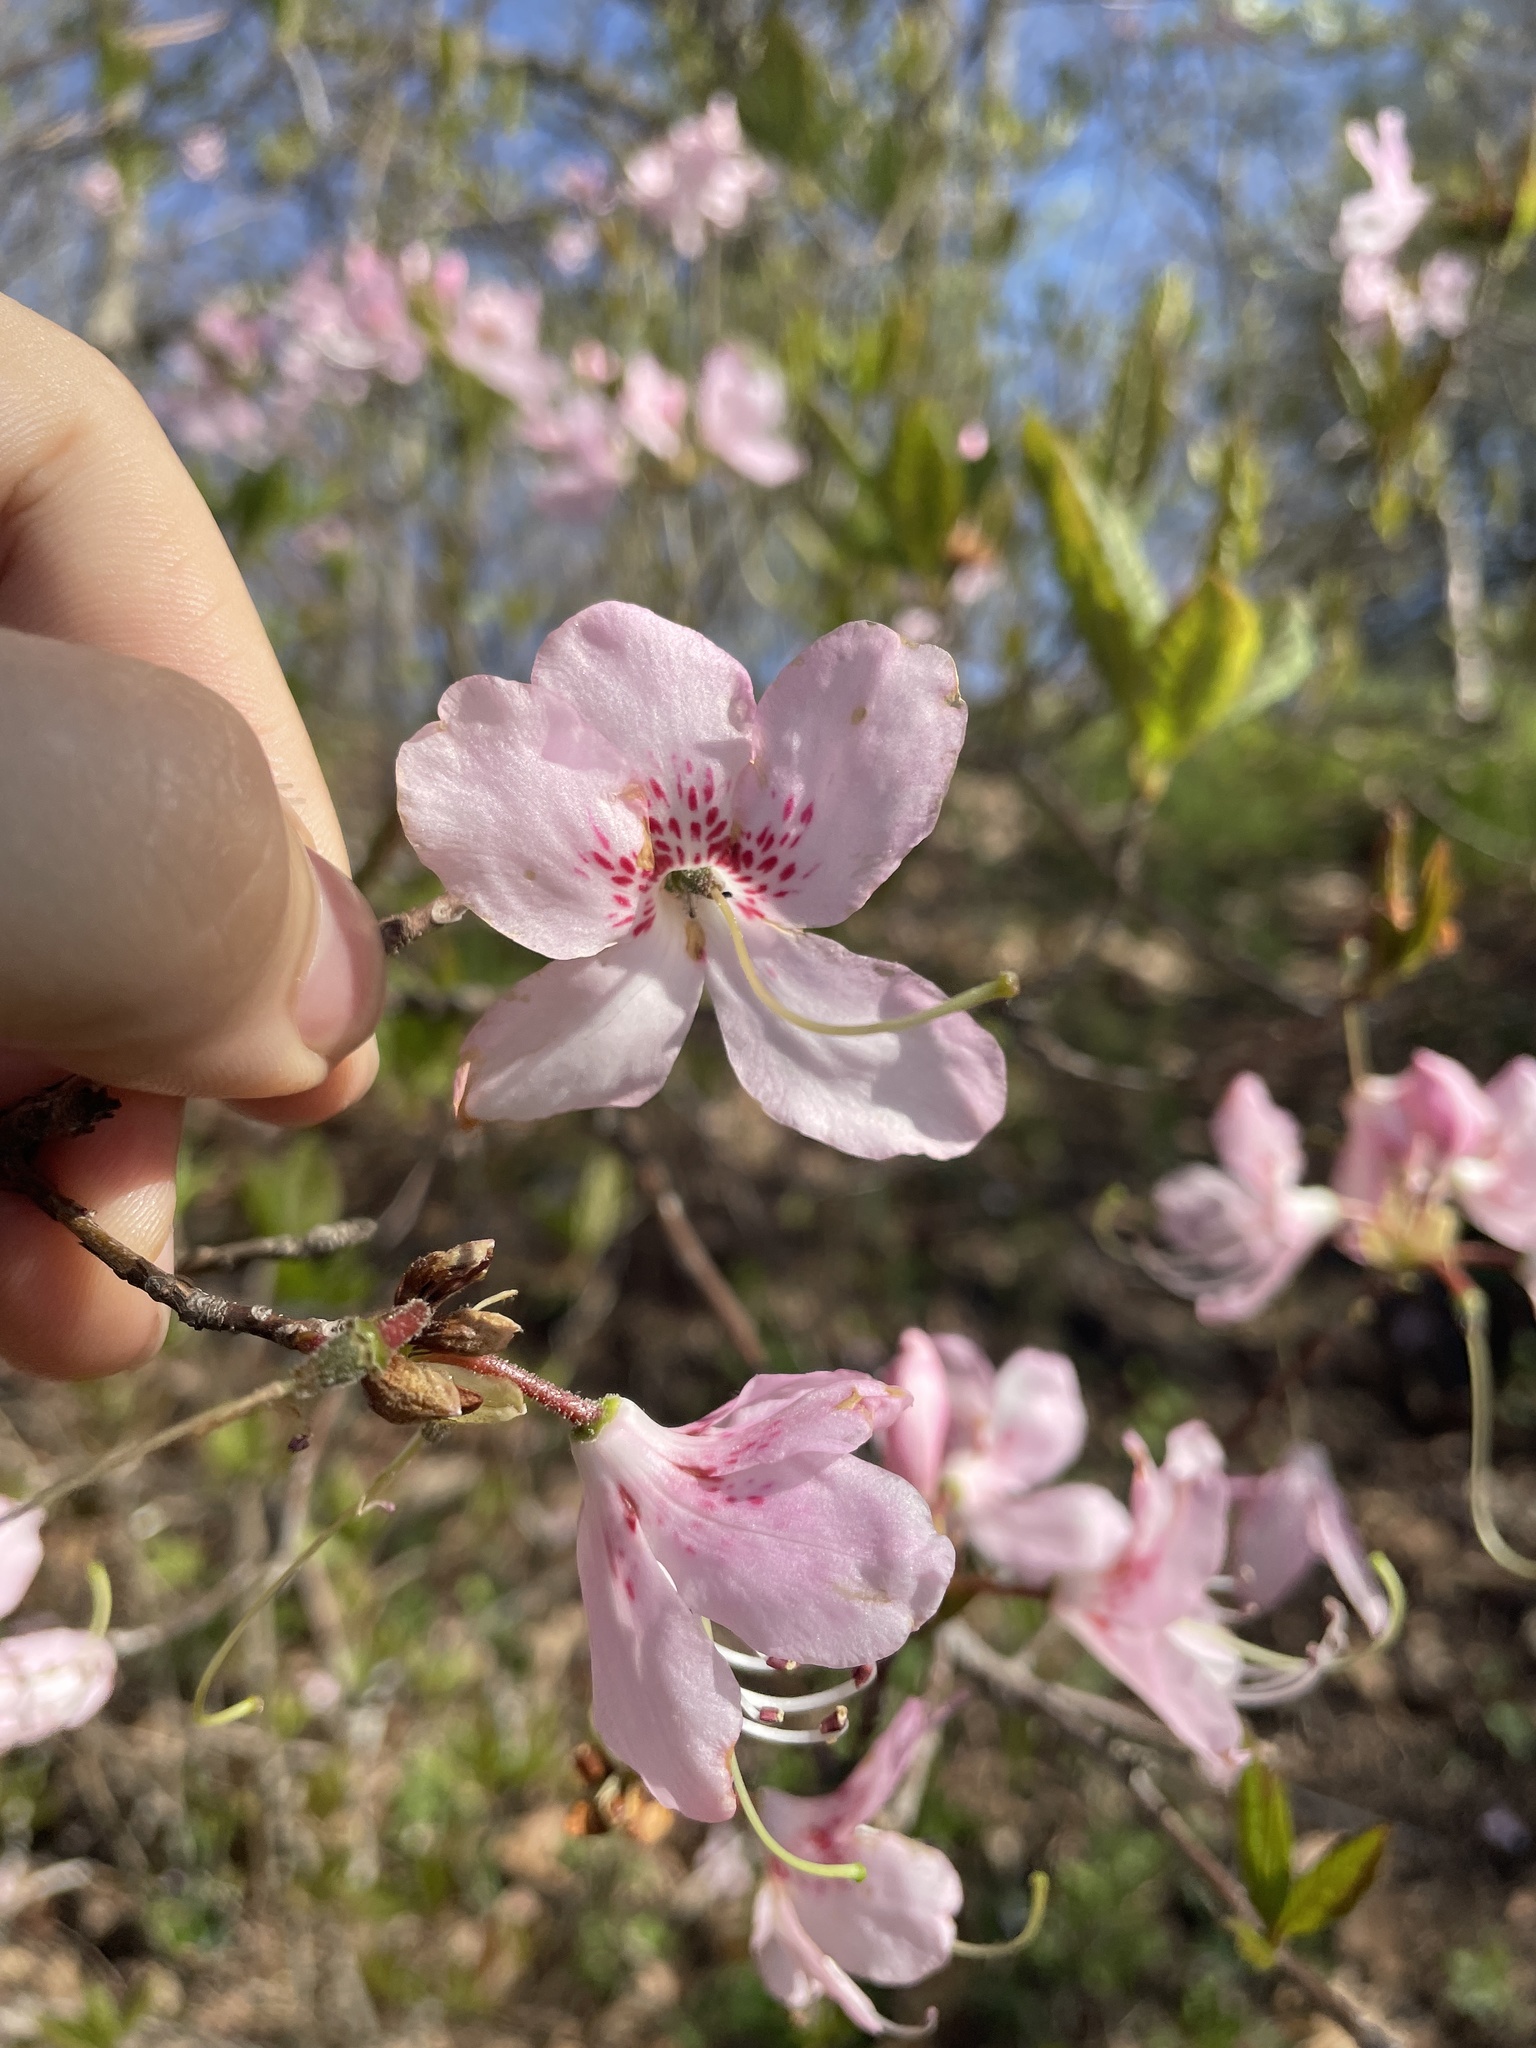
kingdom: Plantae
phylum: Tracheophyta
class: Magnoliopsida
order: Ericales
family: Ericaceae
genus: Rhododendron
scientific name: Rhododendron vaseyi
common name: Pink-shell azalea
